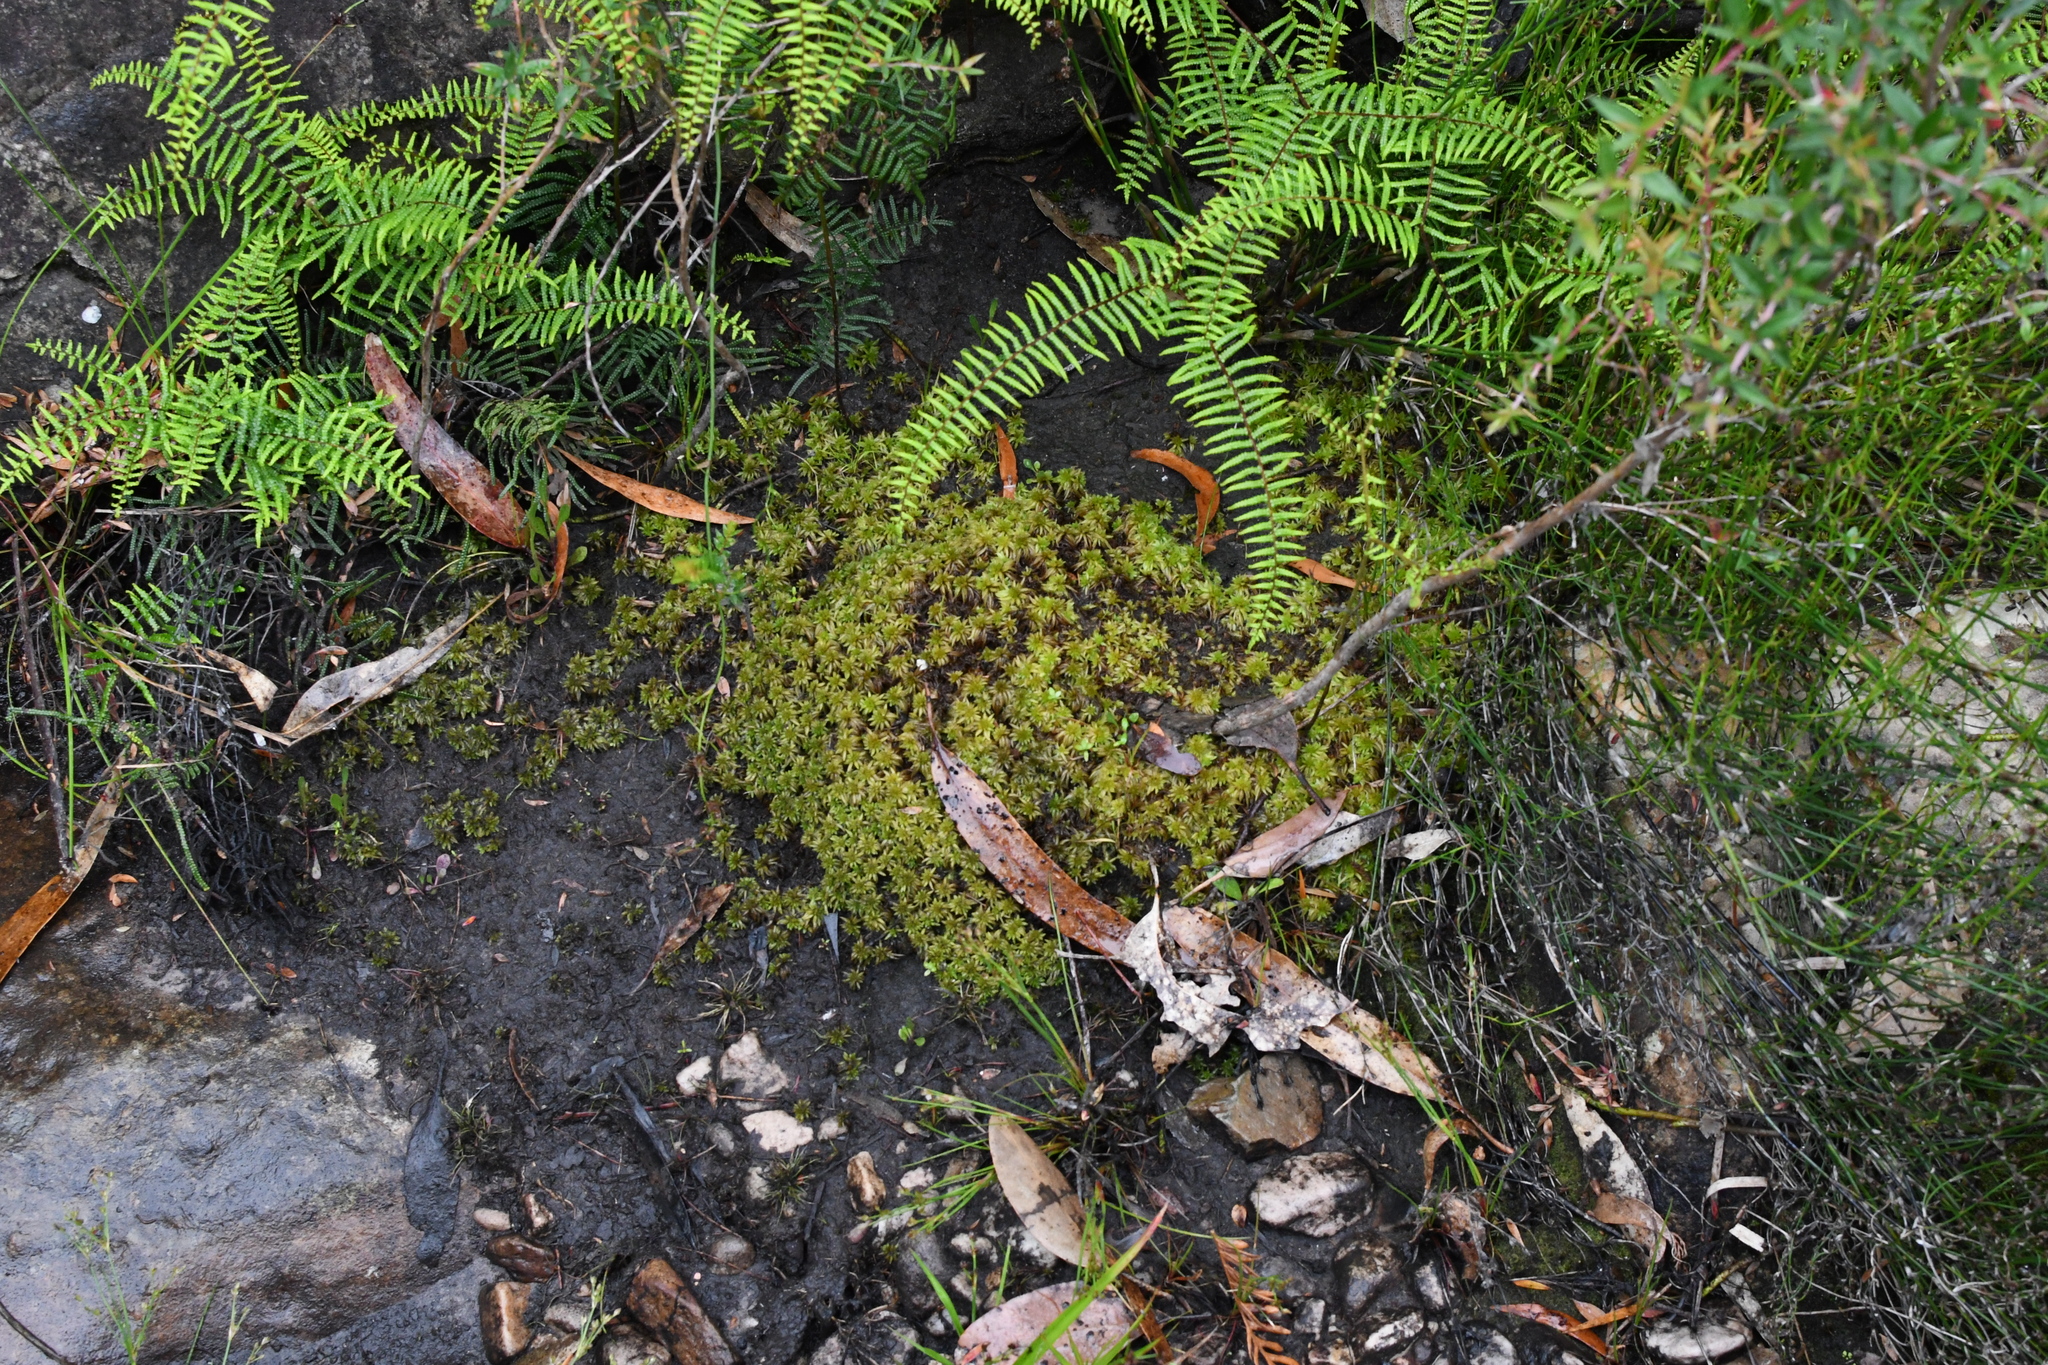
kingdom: Plantae
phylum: Bryophyta
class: Sphagnopsida
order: Sphagnales
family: Sphagnaceae
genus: Sphagnum
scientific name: Sphagnum novozelandicum
